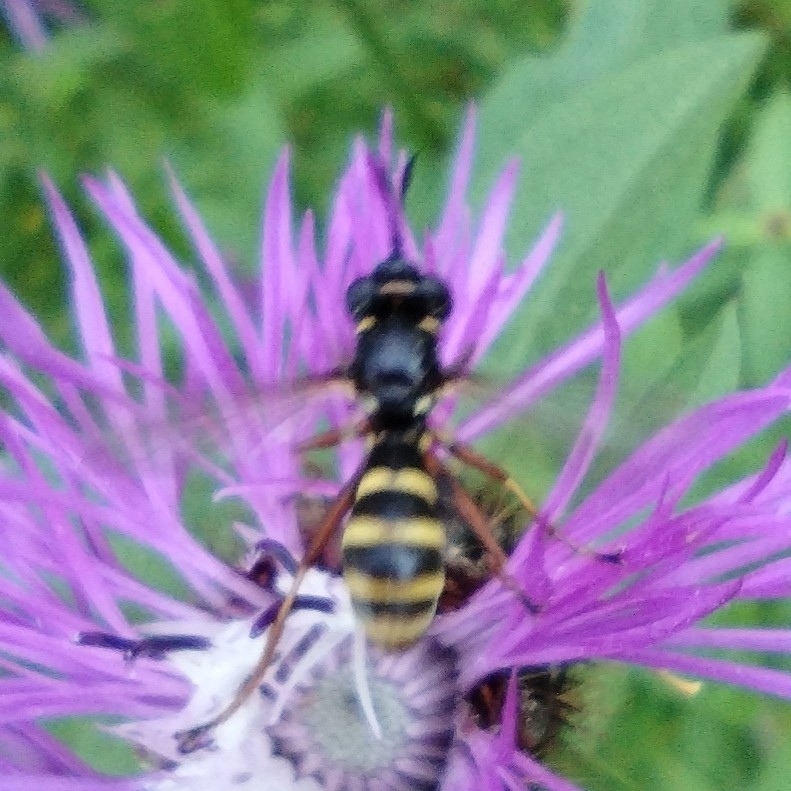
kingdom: Animalia
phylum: Arthropoda
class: Insecta
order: Diptera
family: Conopidae
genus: Conops
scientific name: Conops quadrifasciatus
